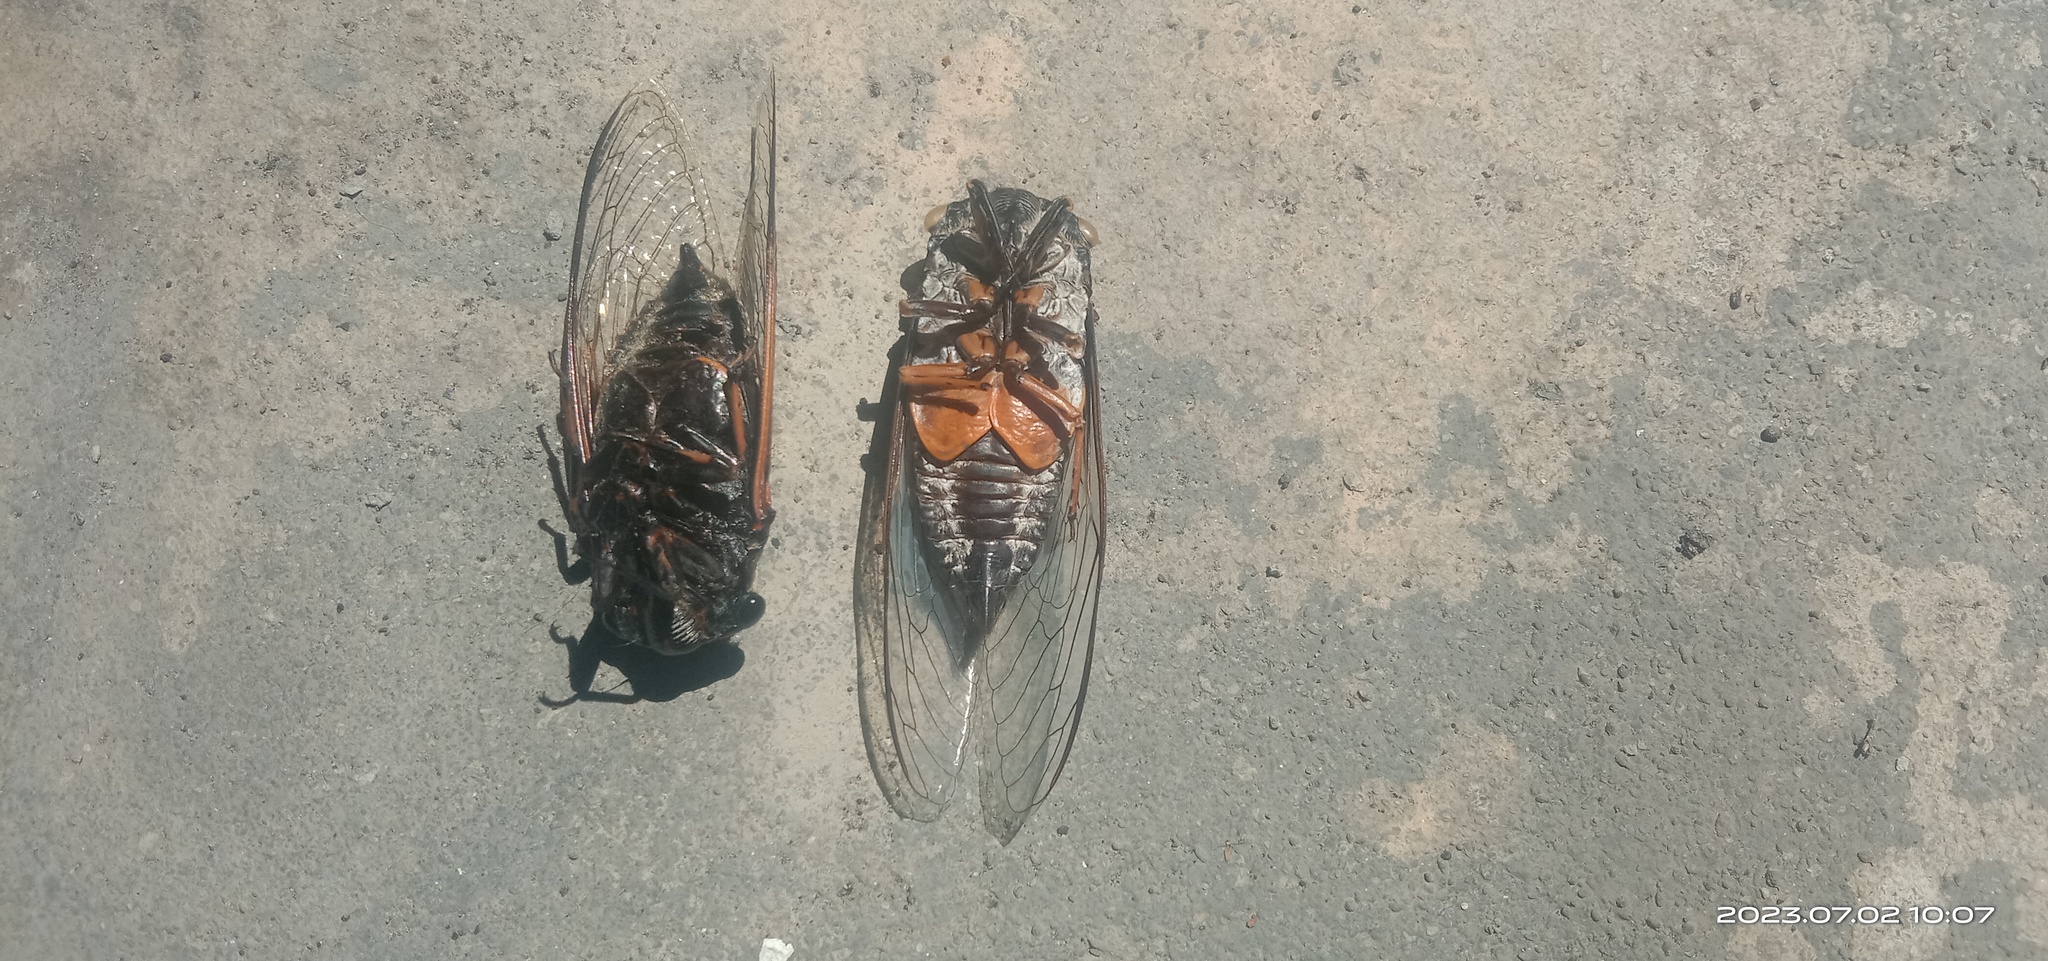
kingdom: Animalia
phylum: Arthropoda
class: Insecta
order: Hemiptera
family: Cicadidae
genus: Cryptotympana
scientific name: Cryptotympana takasagona
